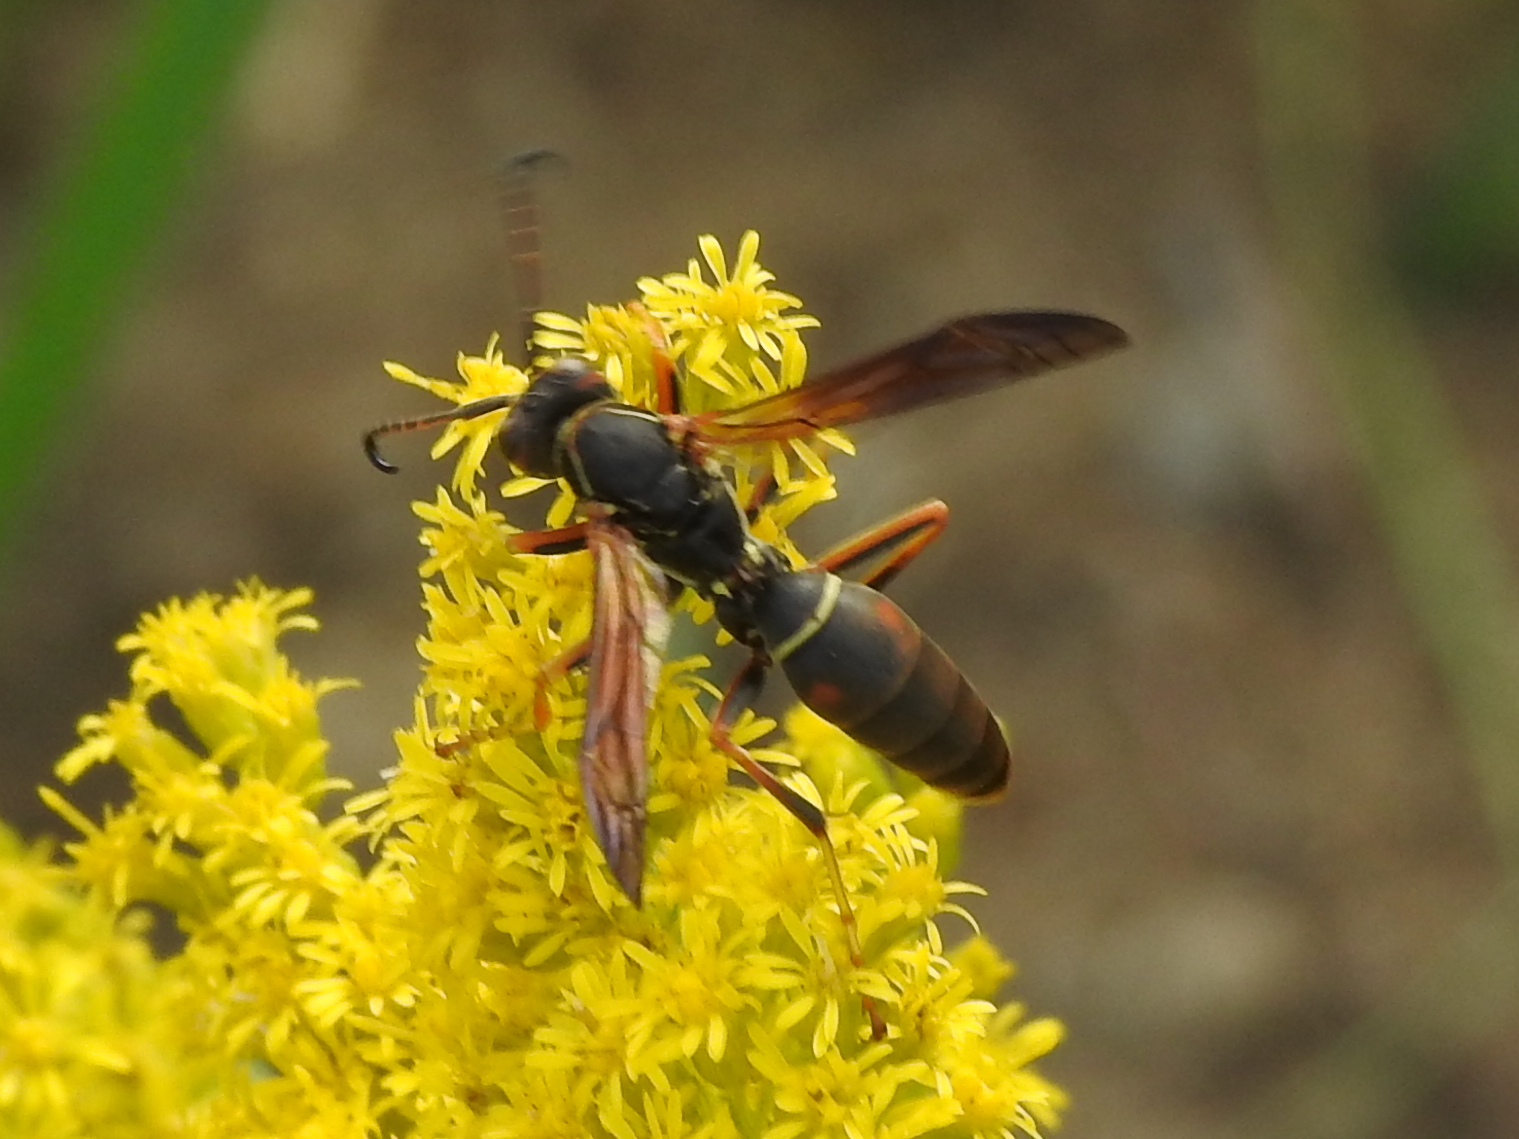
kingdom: Animalia
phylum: Arthropoda
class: Insecta
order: Hymenoptera
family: Eumenidae
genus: Polistes
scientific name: Polistes fuscatus
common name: Dark paper wasp
